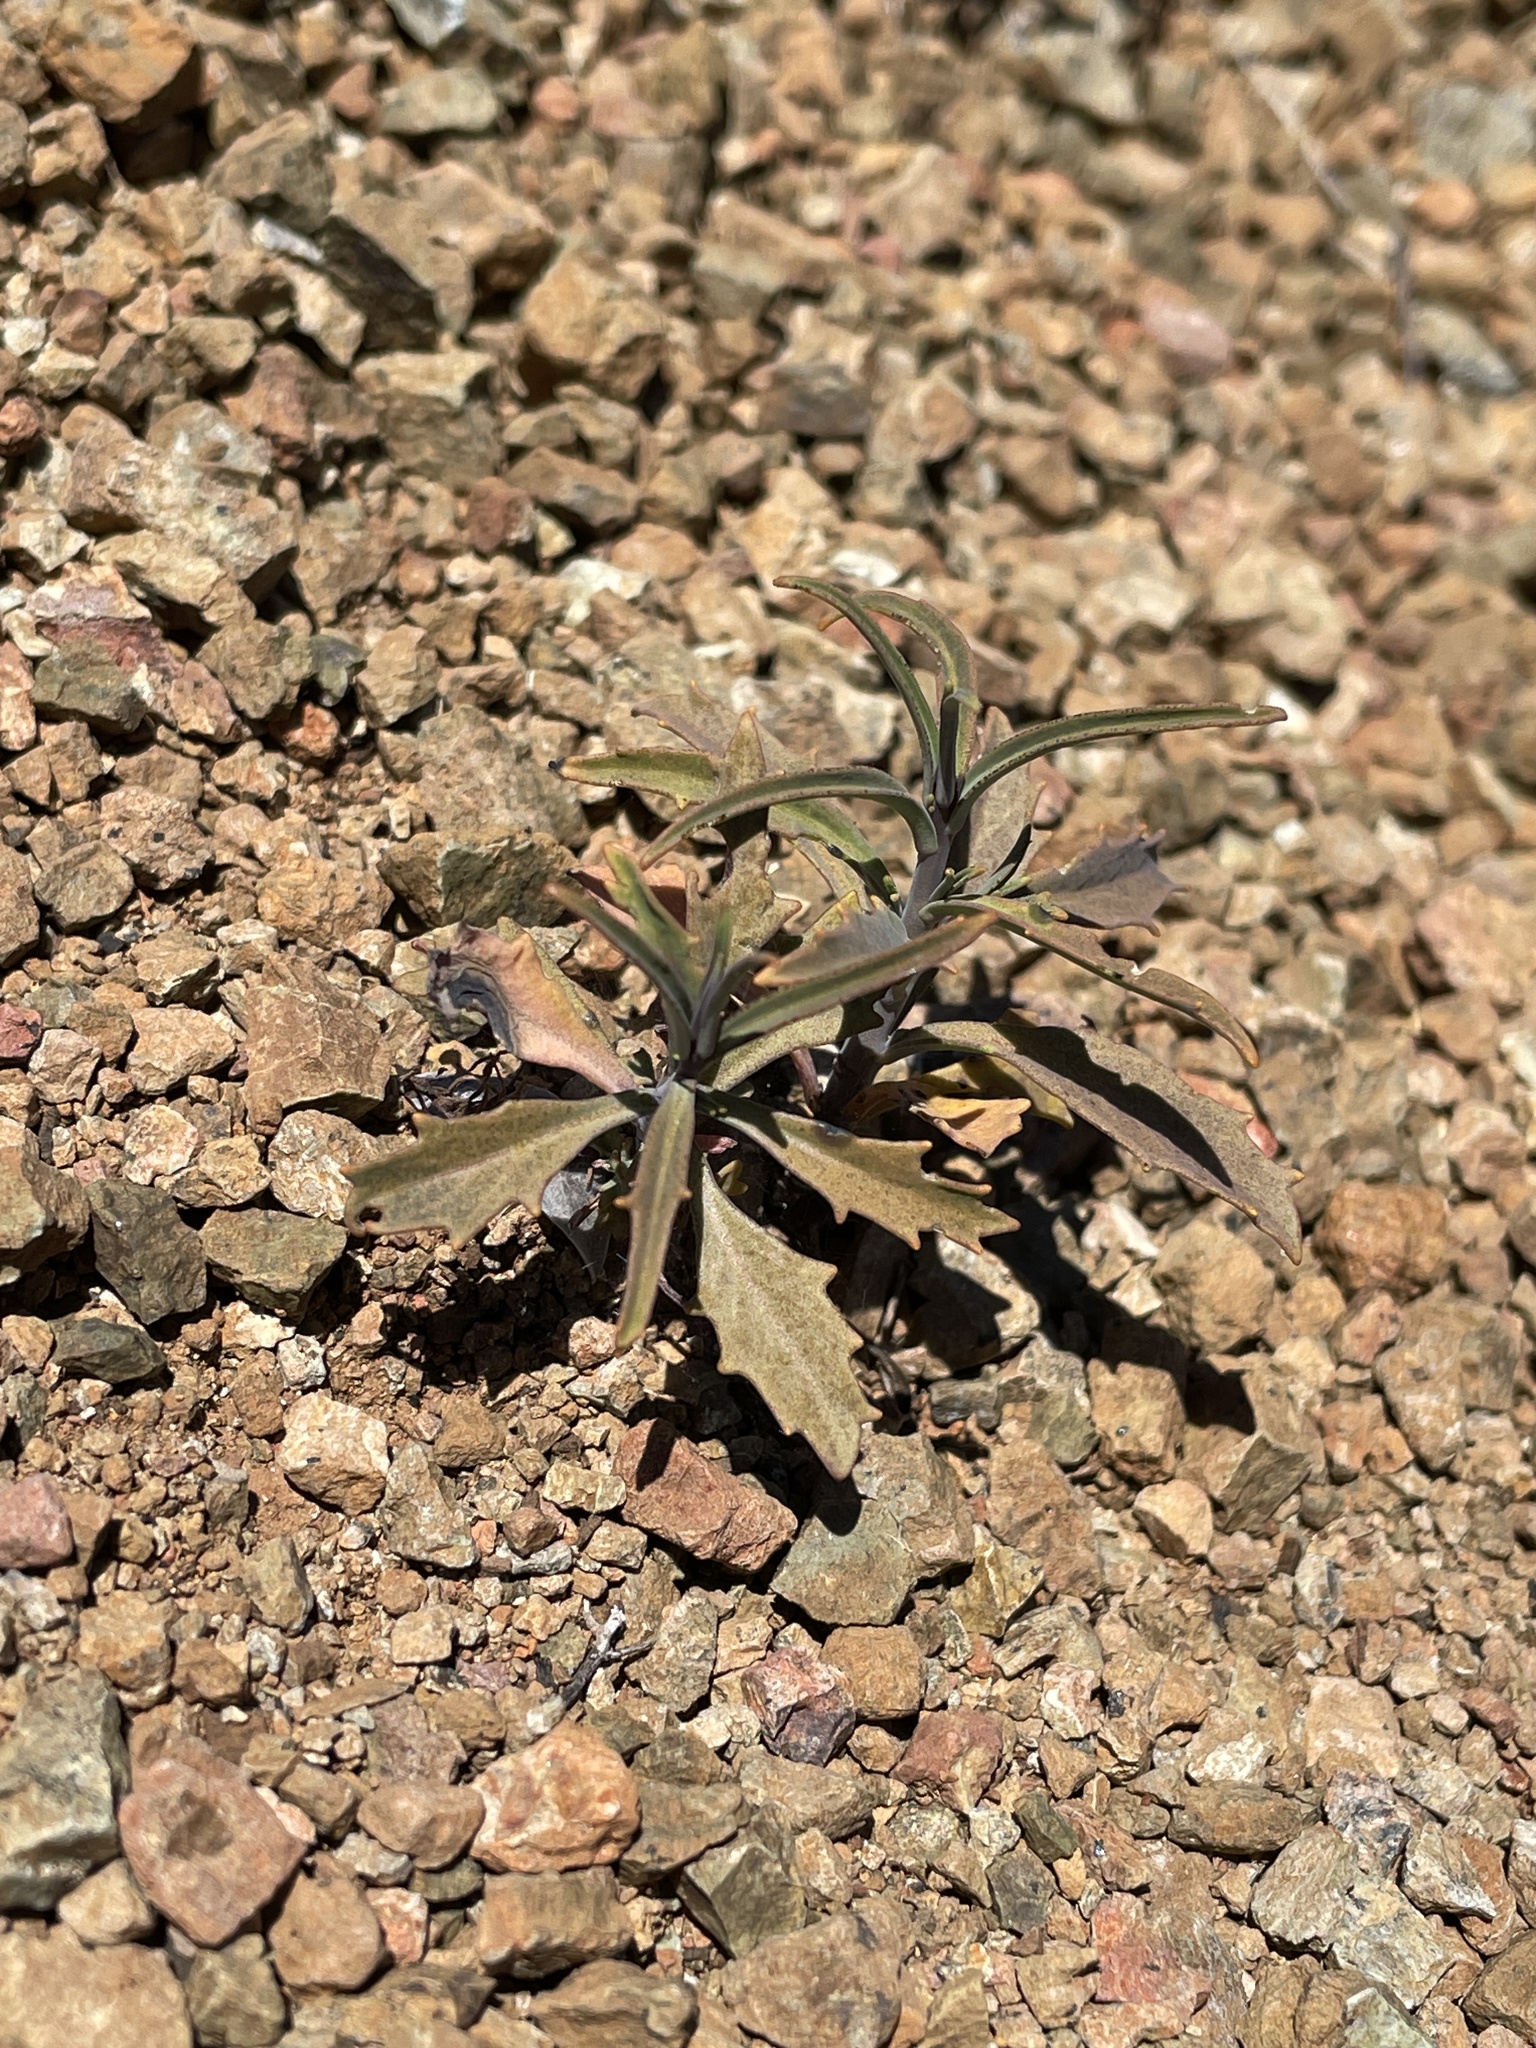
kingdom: Plantae
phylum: Tracheophyta
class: Magnoliopsida
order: Brassicales
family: Brassicaceae
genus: Streptanthus
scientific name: Streptanthus barbiger
